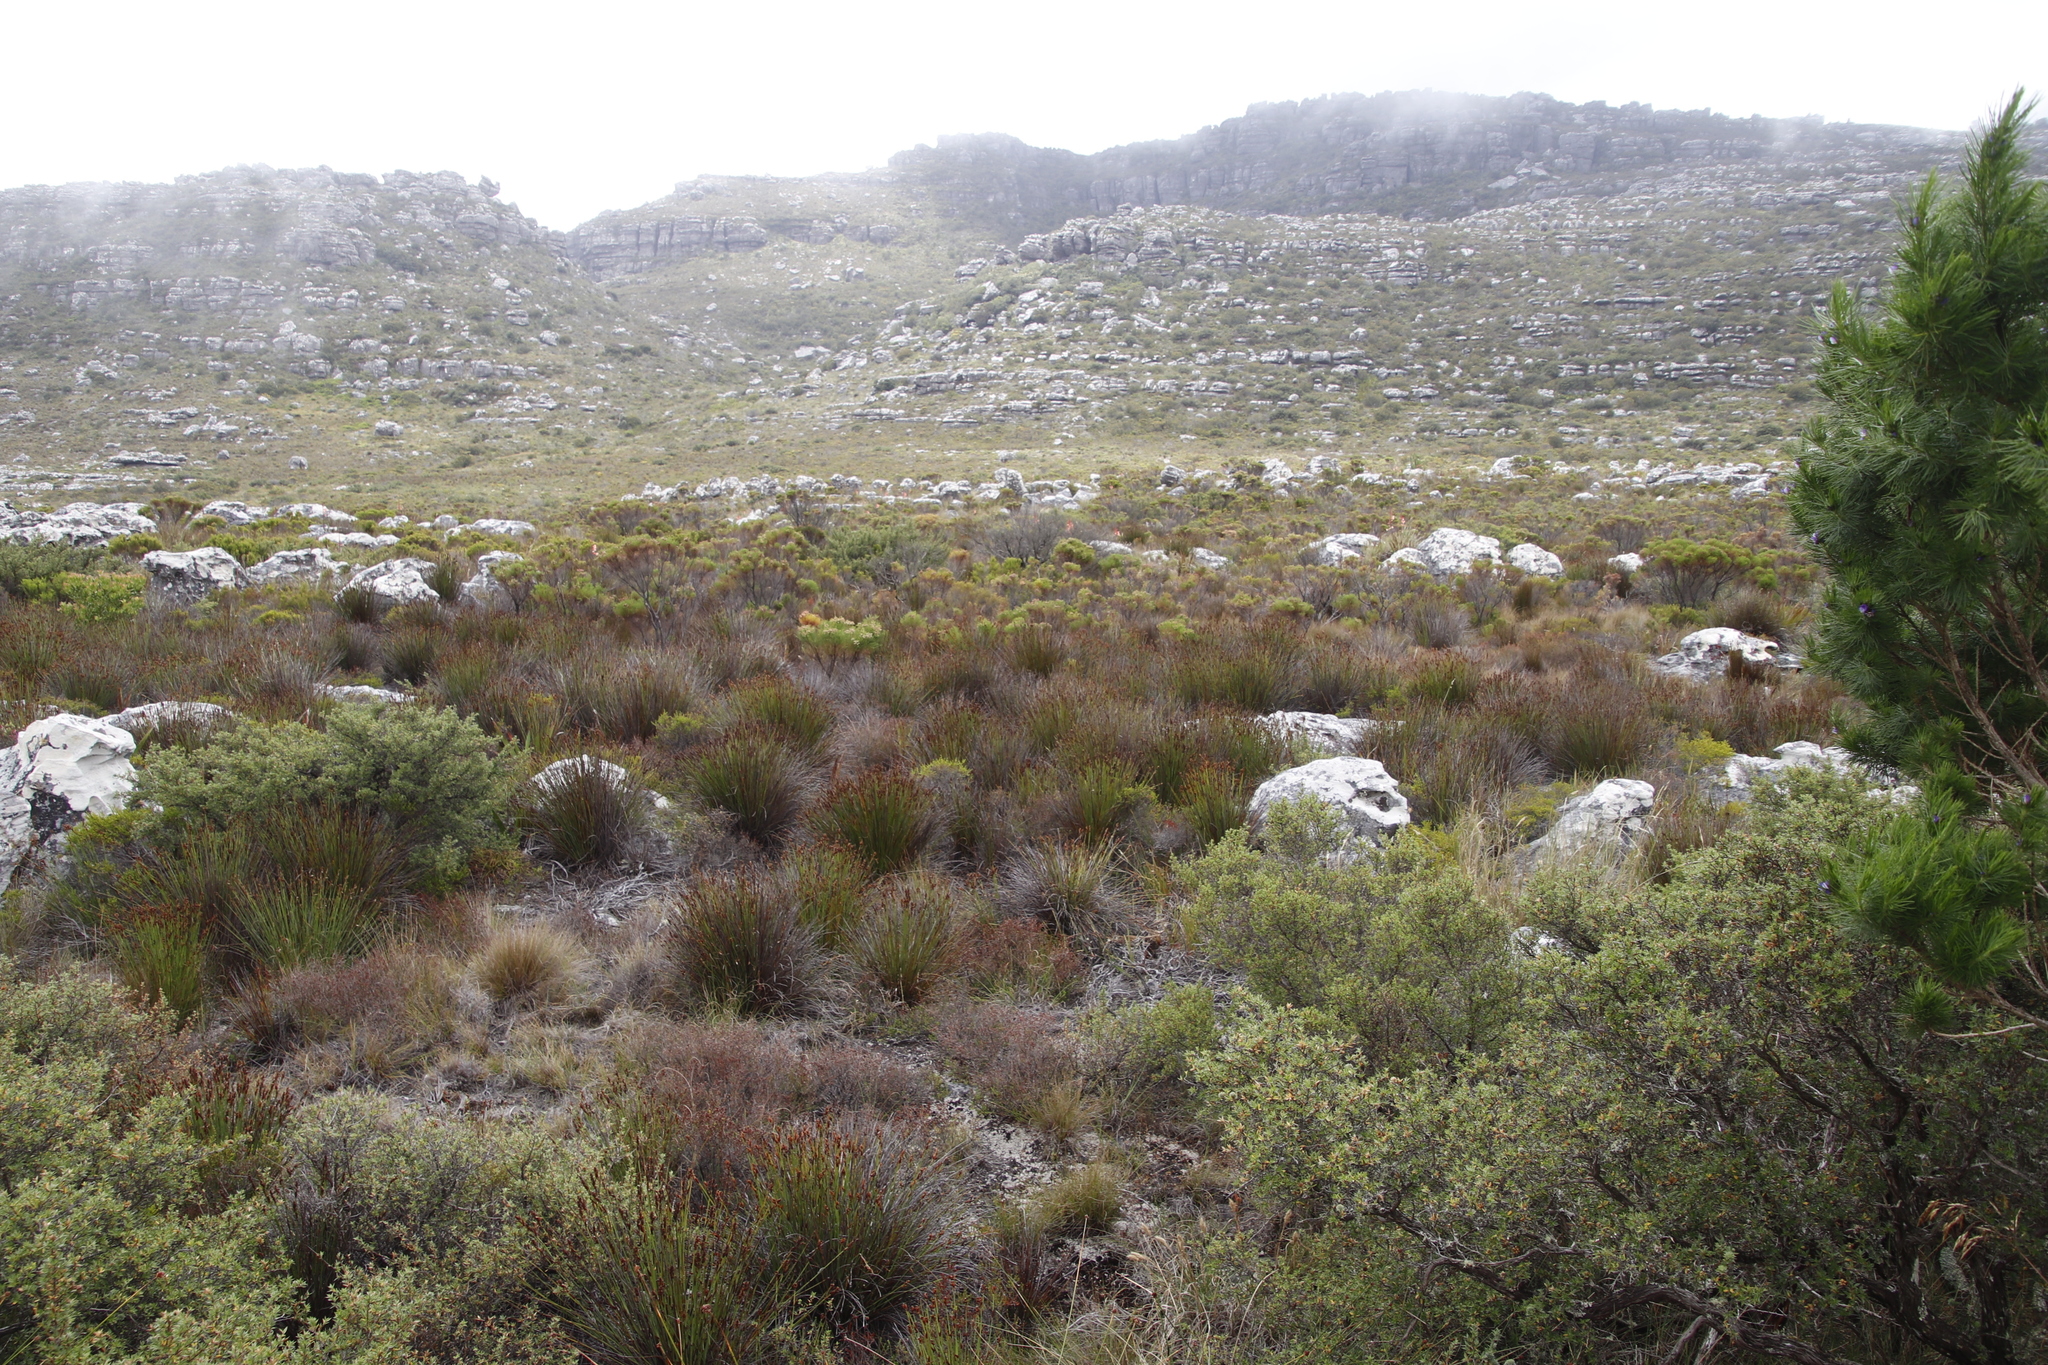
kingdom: Plantae
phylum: Tracheophyta
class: Liliopsida
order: Poales
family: Restionaceae
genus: Elegia
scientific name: Elegia ebracteata
